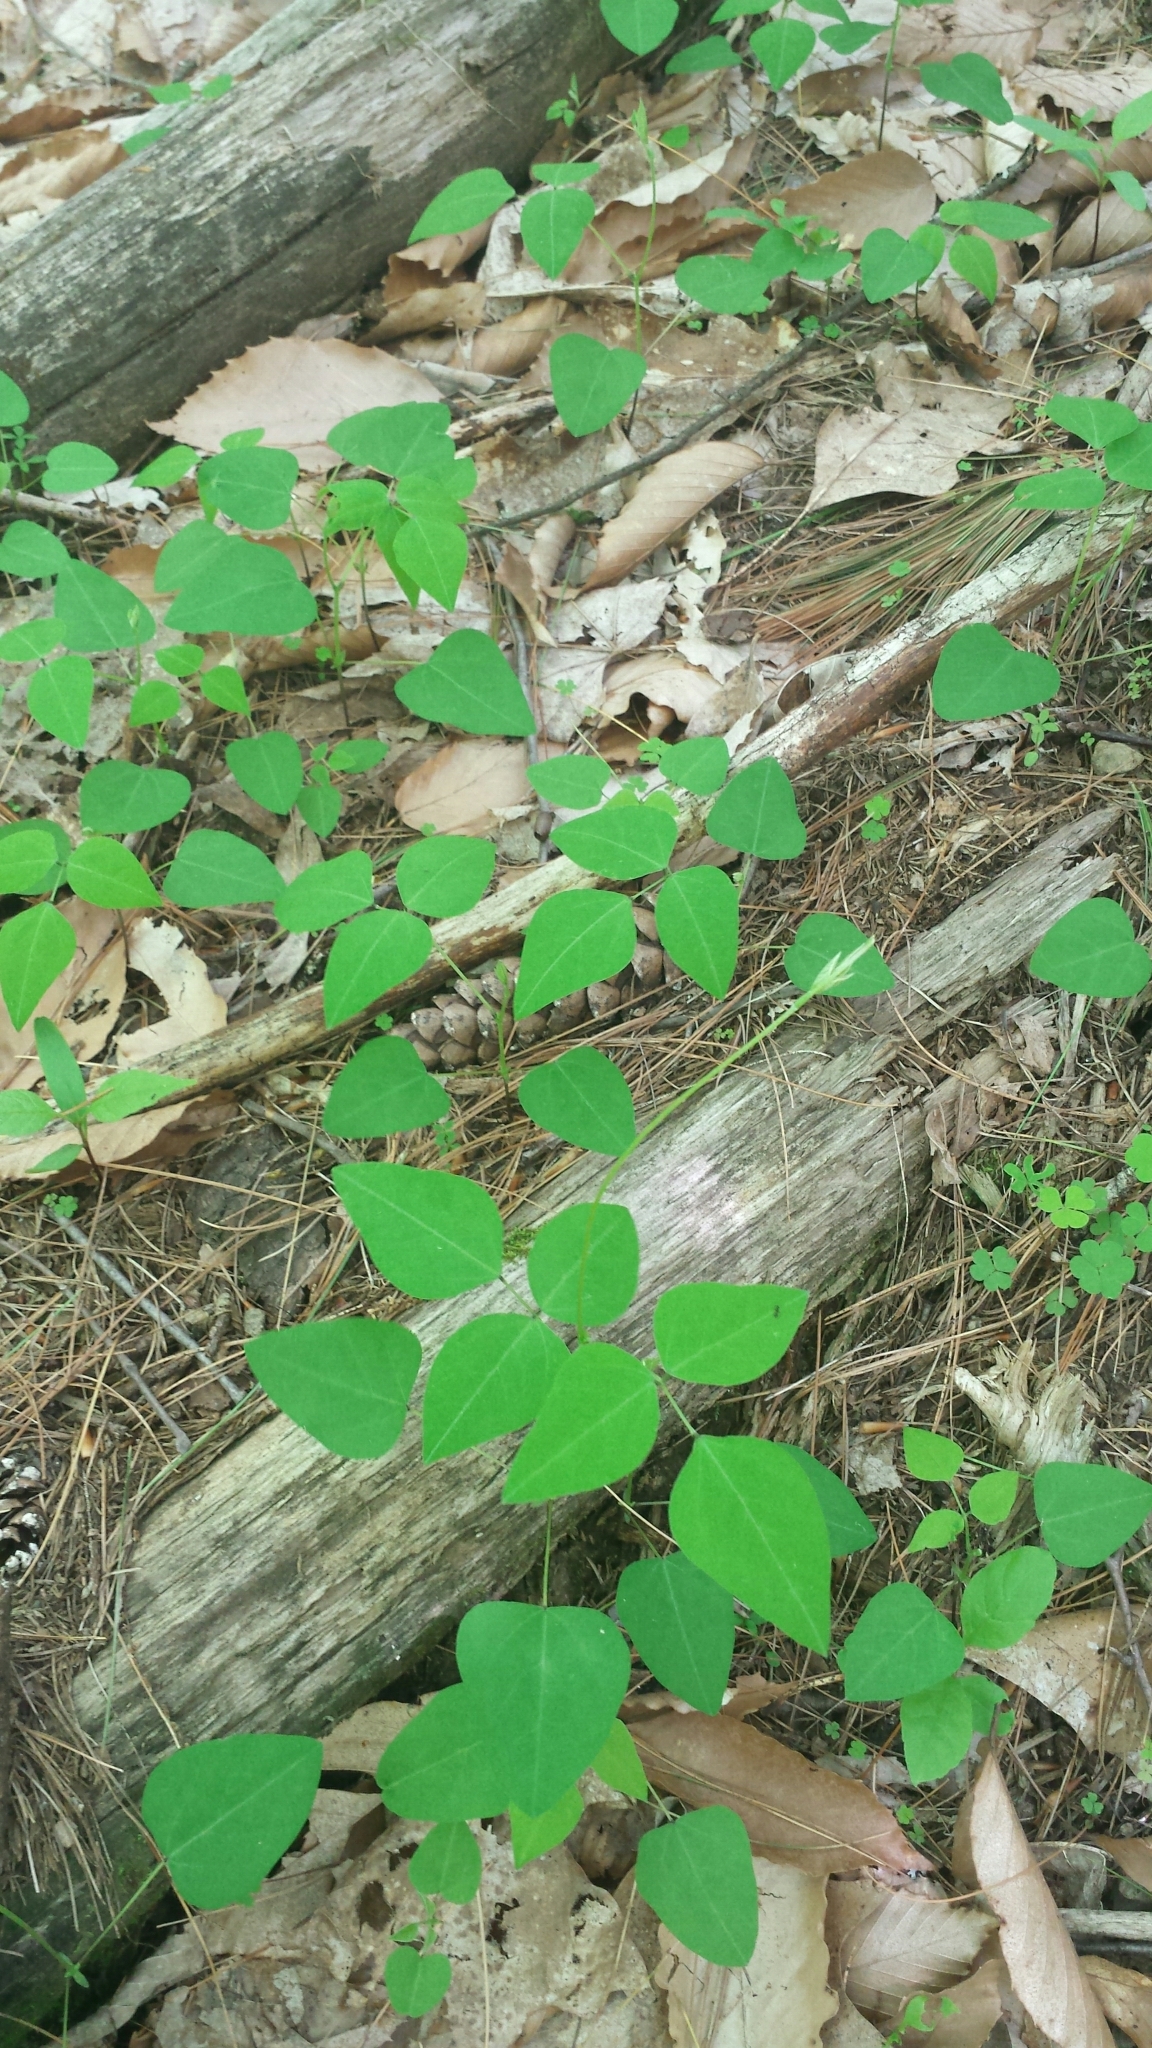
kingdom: Plantae
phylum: Tracheophyta
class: Magnoliopsida
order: Fabales
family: Fabaceae
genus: Amphicarpaea
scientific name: Amphicarpaea bracteata
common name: American hog peanut
